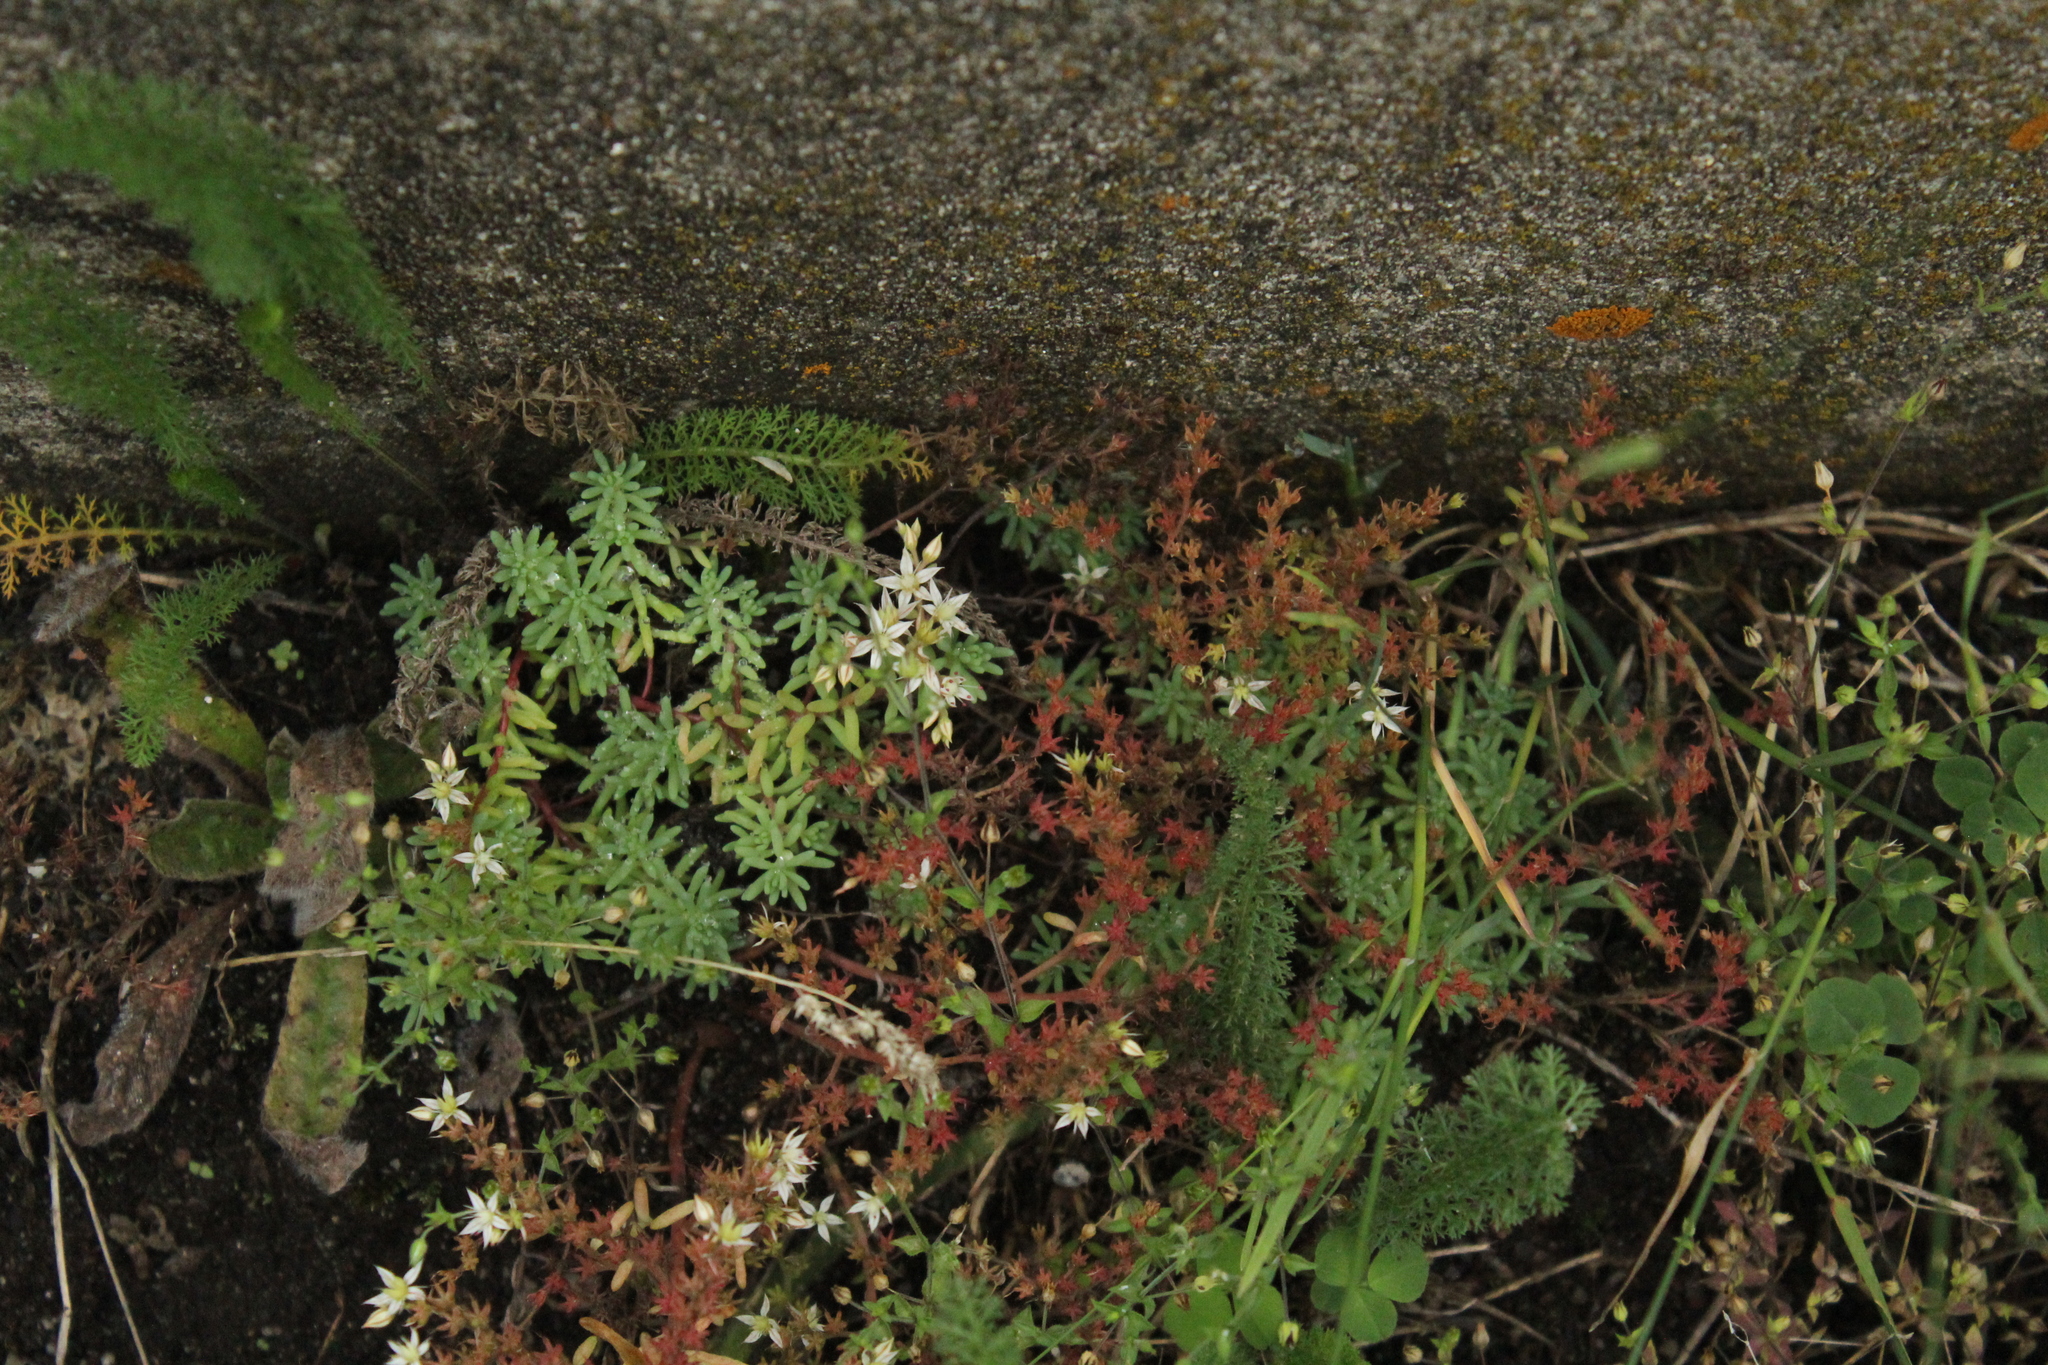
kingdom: Plantae
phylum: Tracheophyta
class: Magnoliopsida
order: Saxifragales
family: Crassulaceae
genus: Sedum
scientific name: Sedum pallidum
